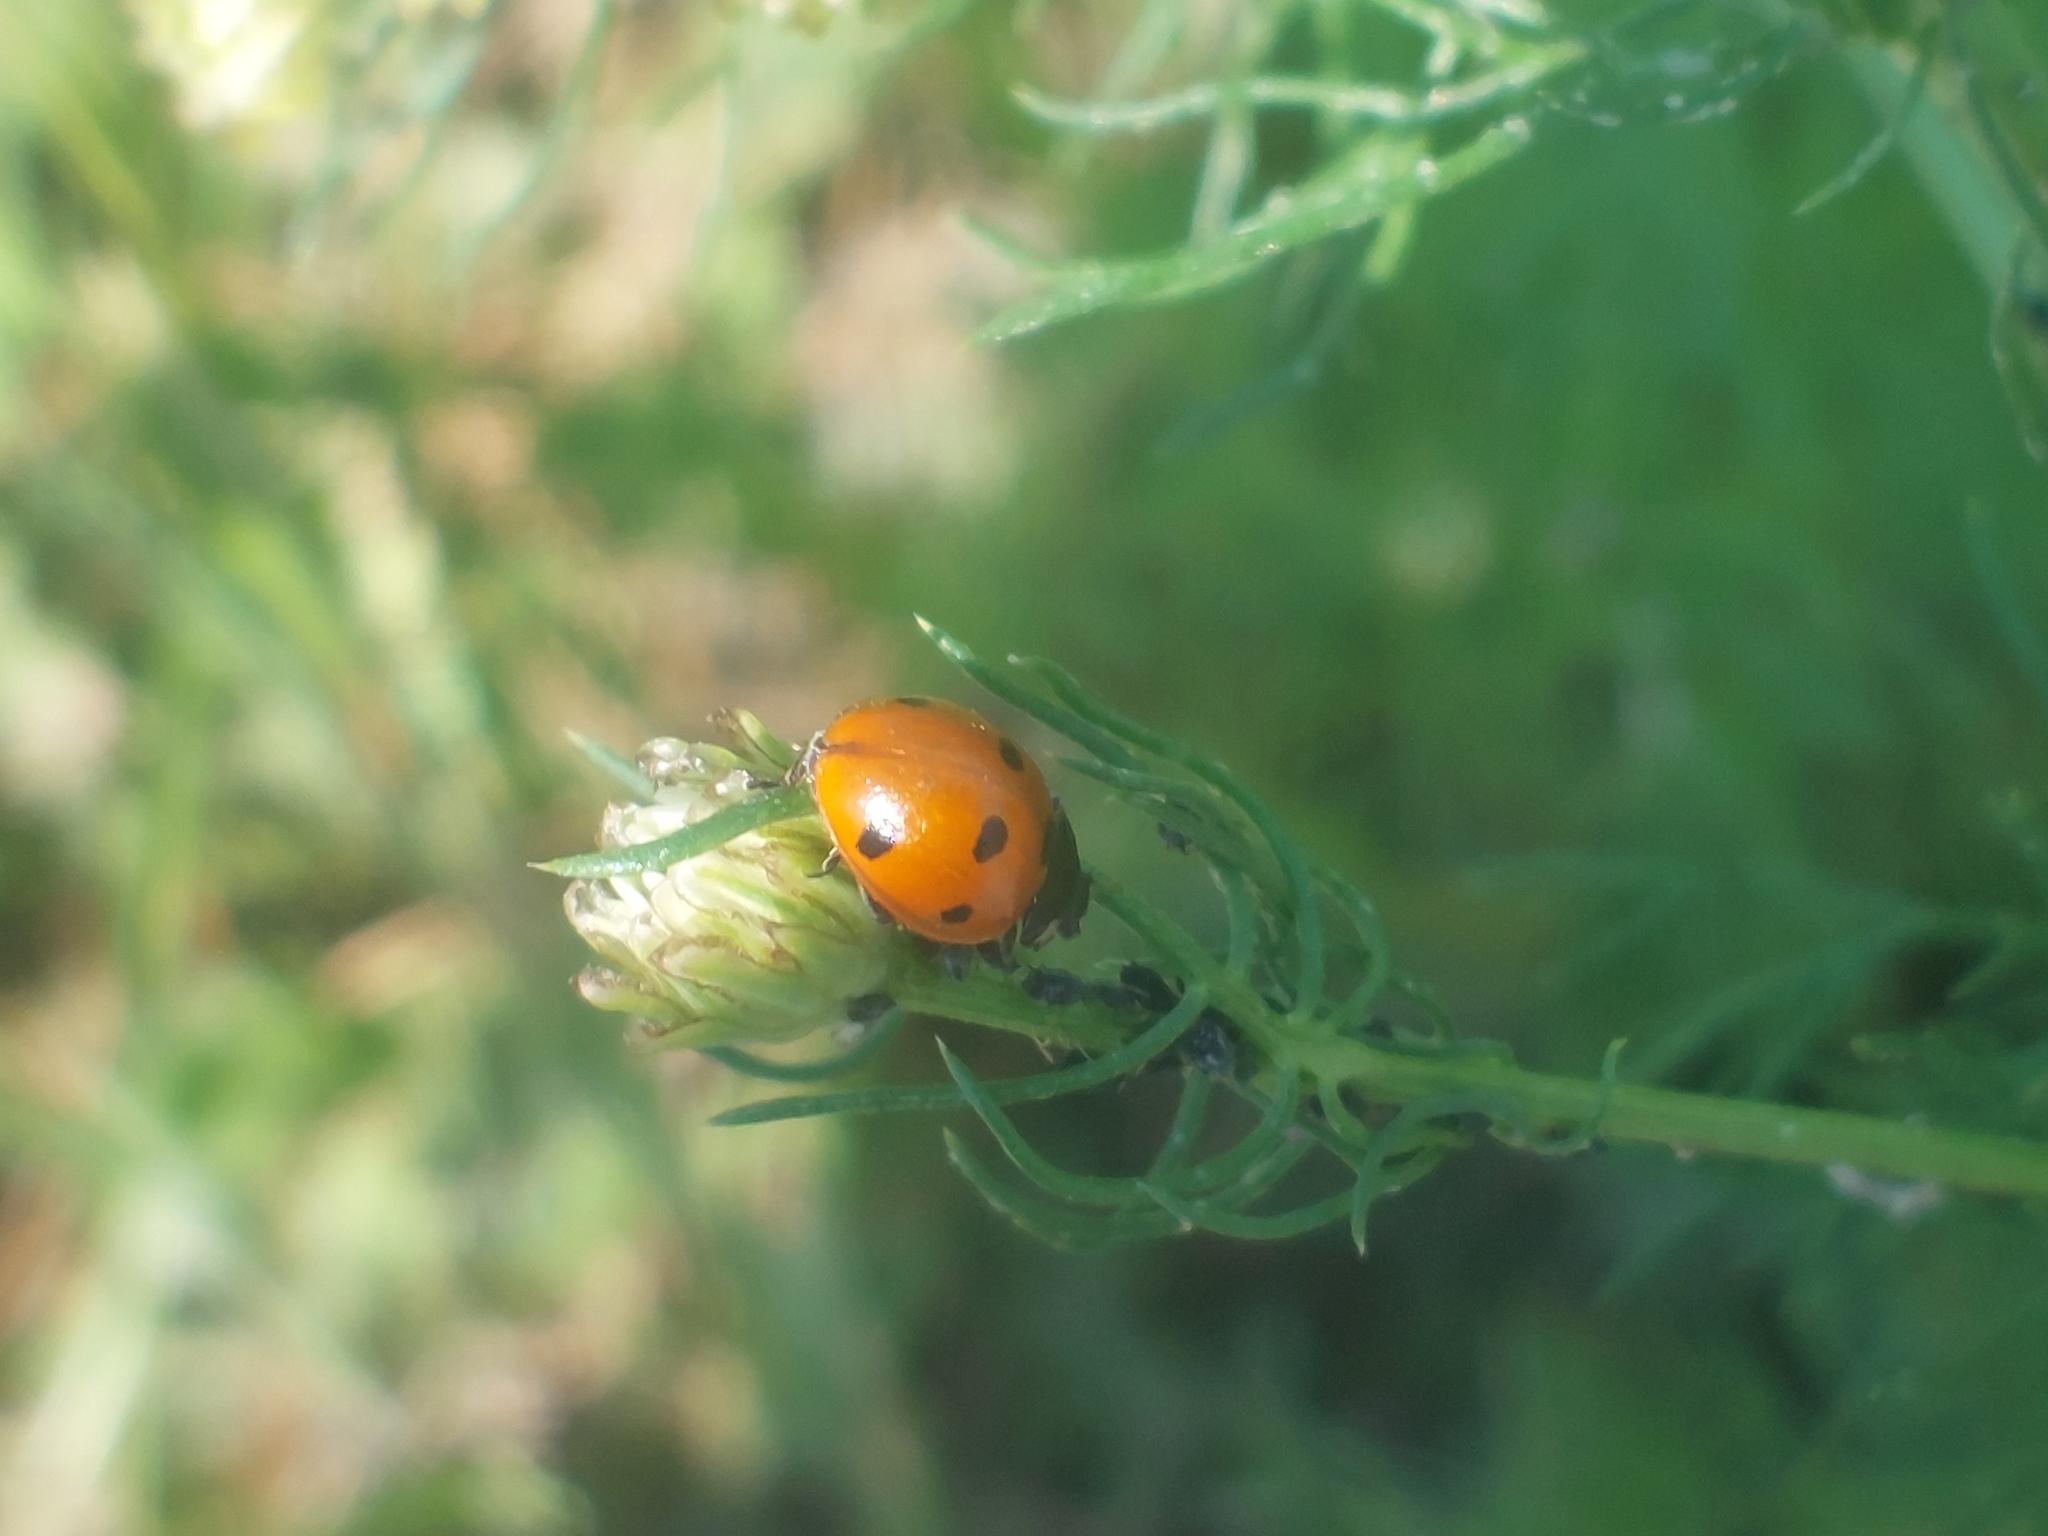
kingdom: Animalia
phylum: Arthropoda
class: Insecta
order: Coleoptera
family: Coccinellidae
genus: Coccinella
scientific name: Coccinella septempunctata
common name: Sevenspotted lady beetle
